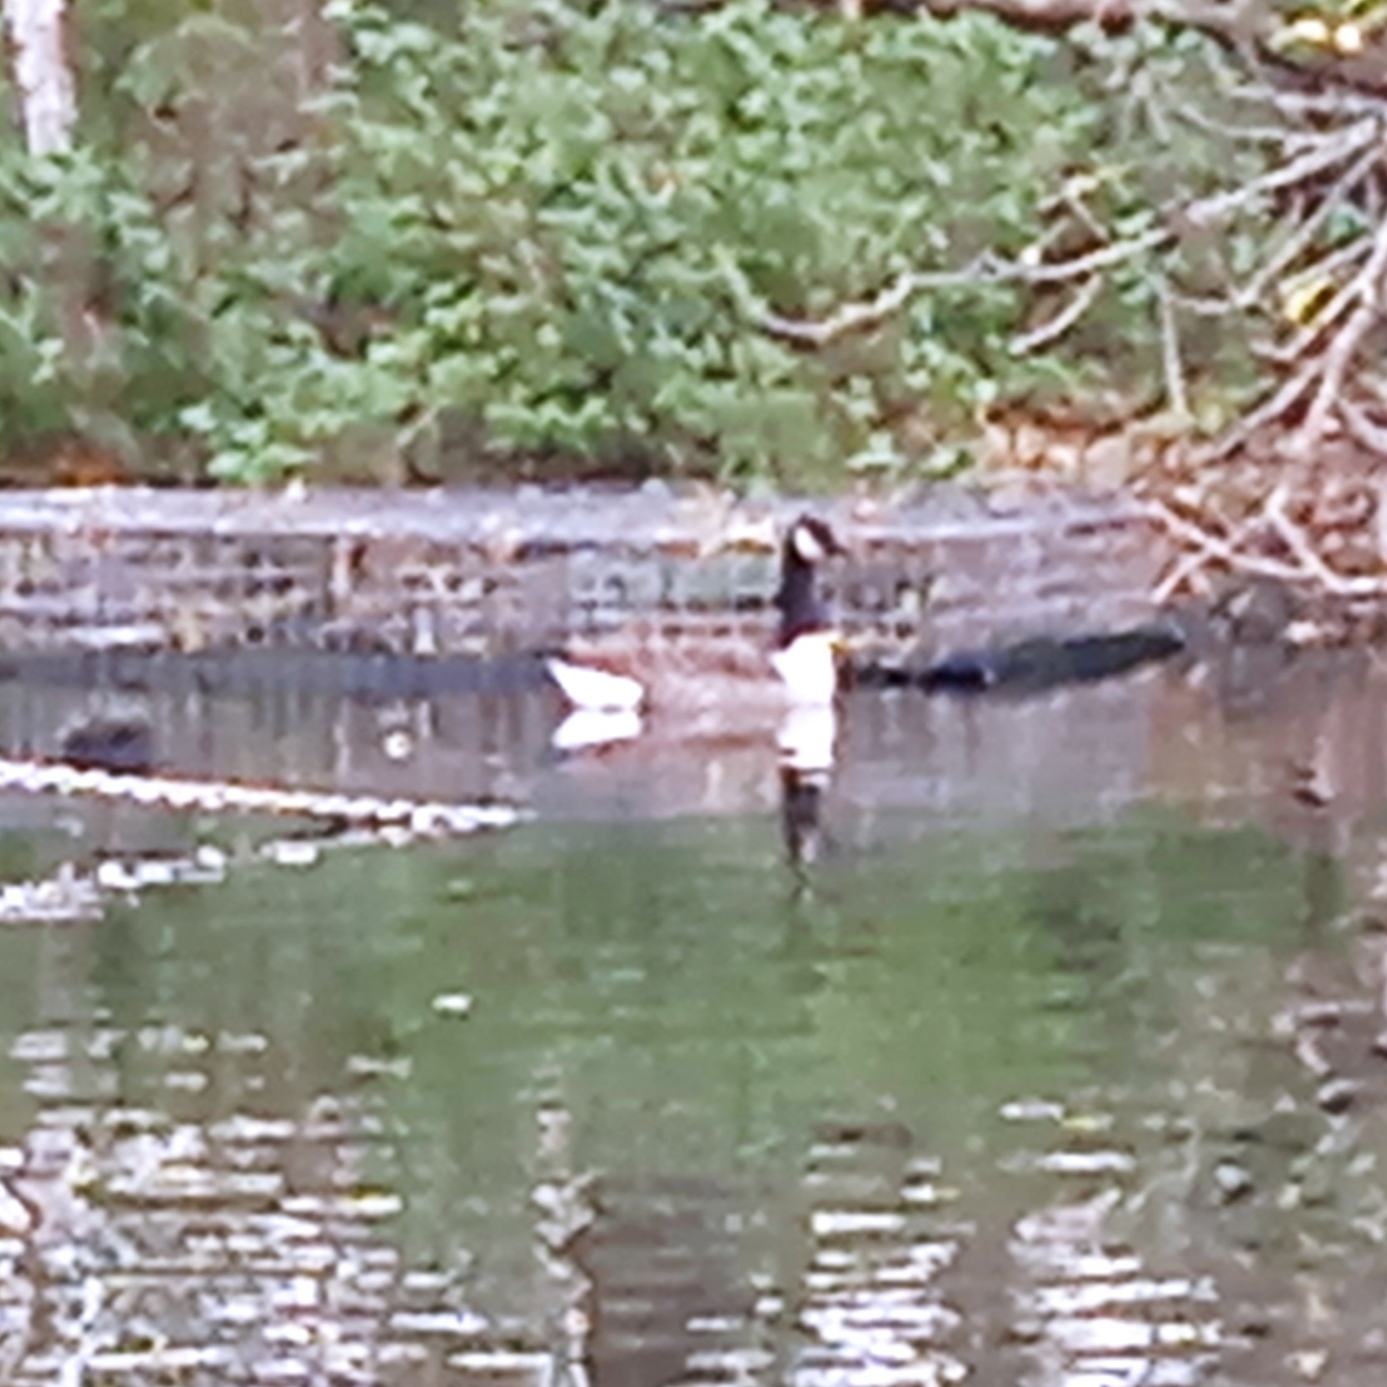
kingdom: Animalia
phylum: Chordata
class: Aves
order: Anseriformes
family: Anatidae
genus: Branta
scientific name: Branta canadensis
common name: Canada goose
